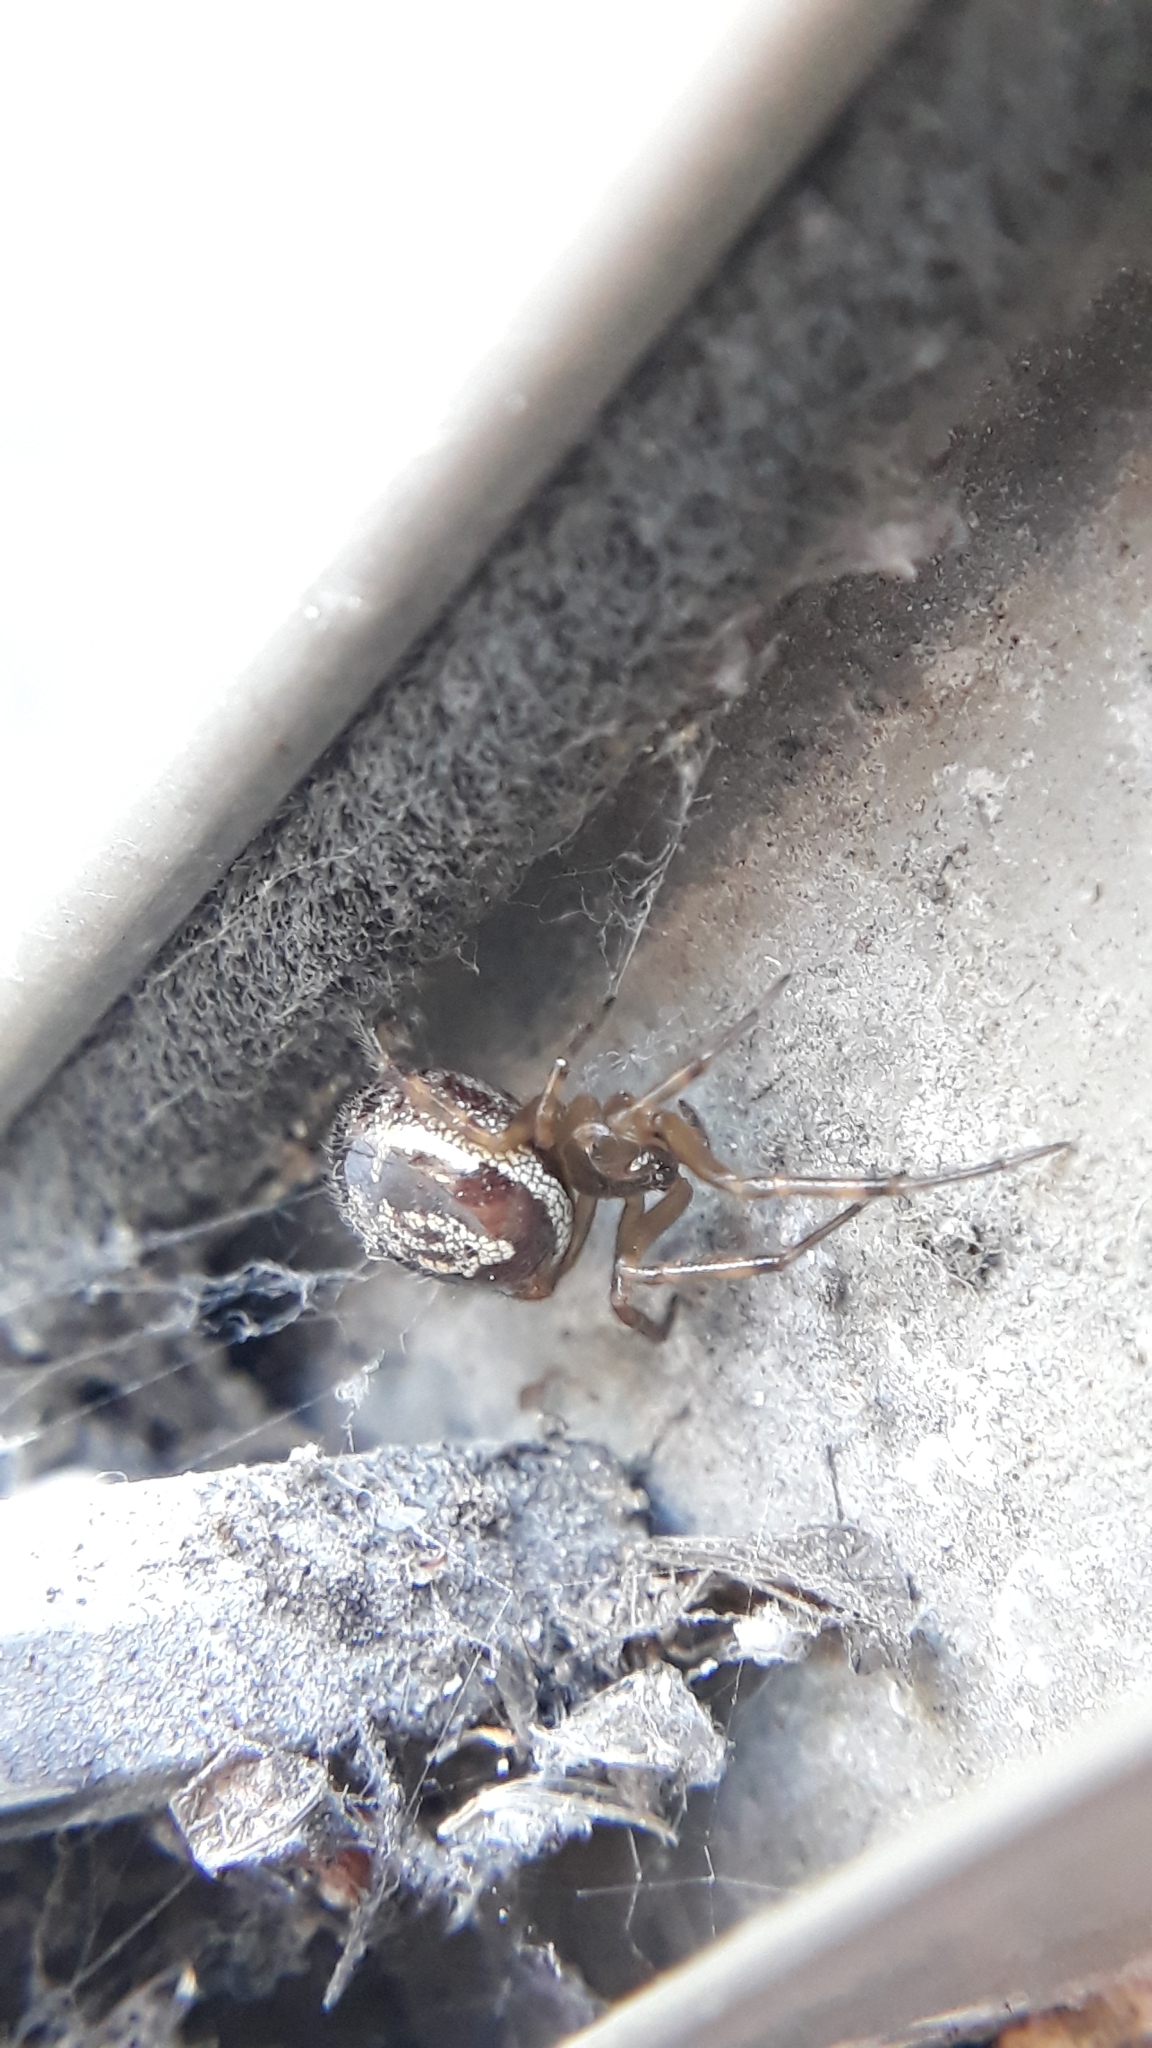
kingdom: Animalia
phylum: Arthropoda
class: Arachnida
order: Araneae
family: Theridiidae
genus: Steatoda
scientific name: Steatoda nobilis
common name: Cobweb weaver
